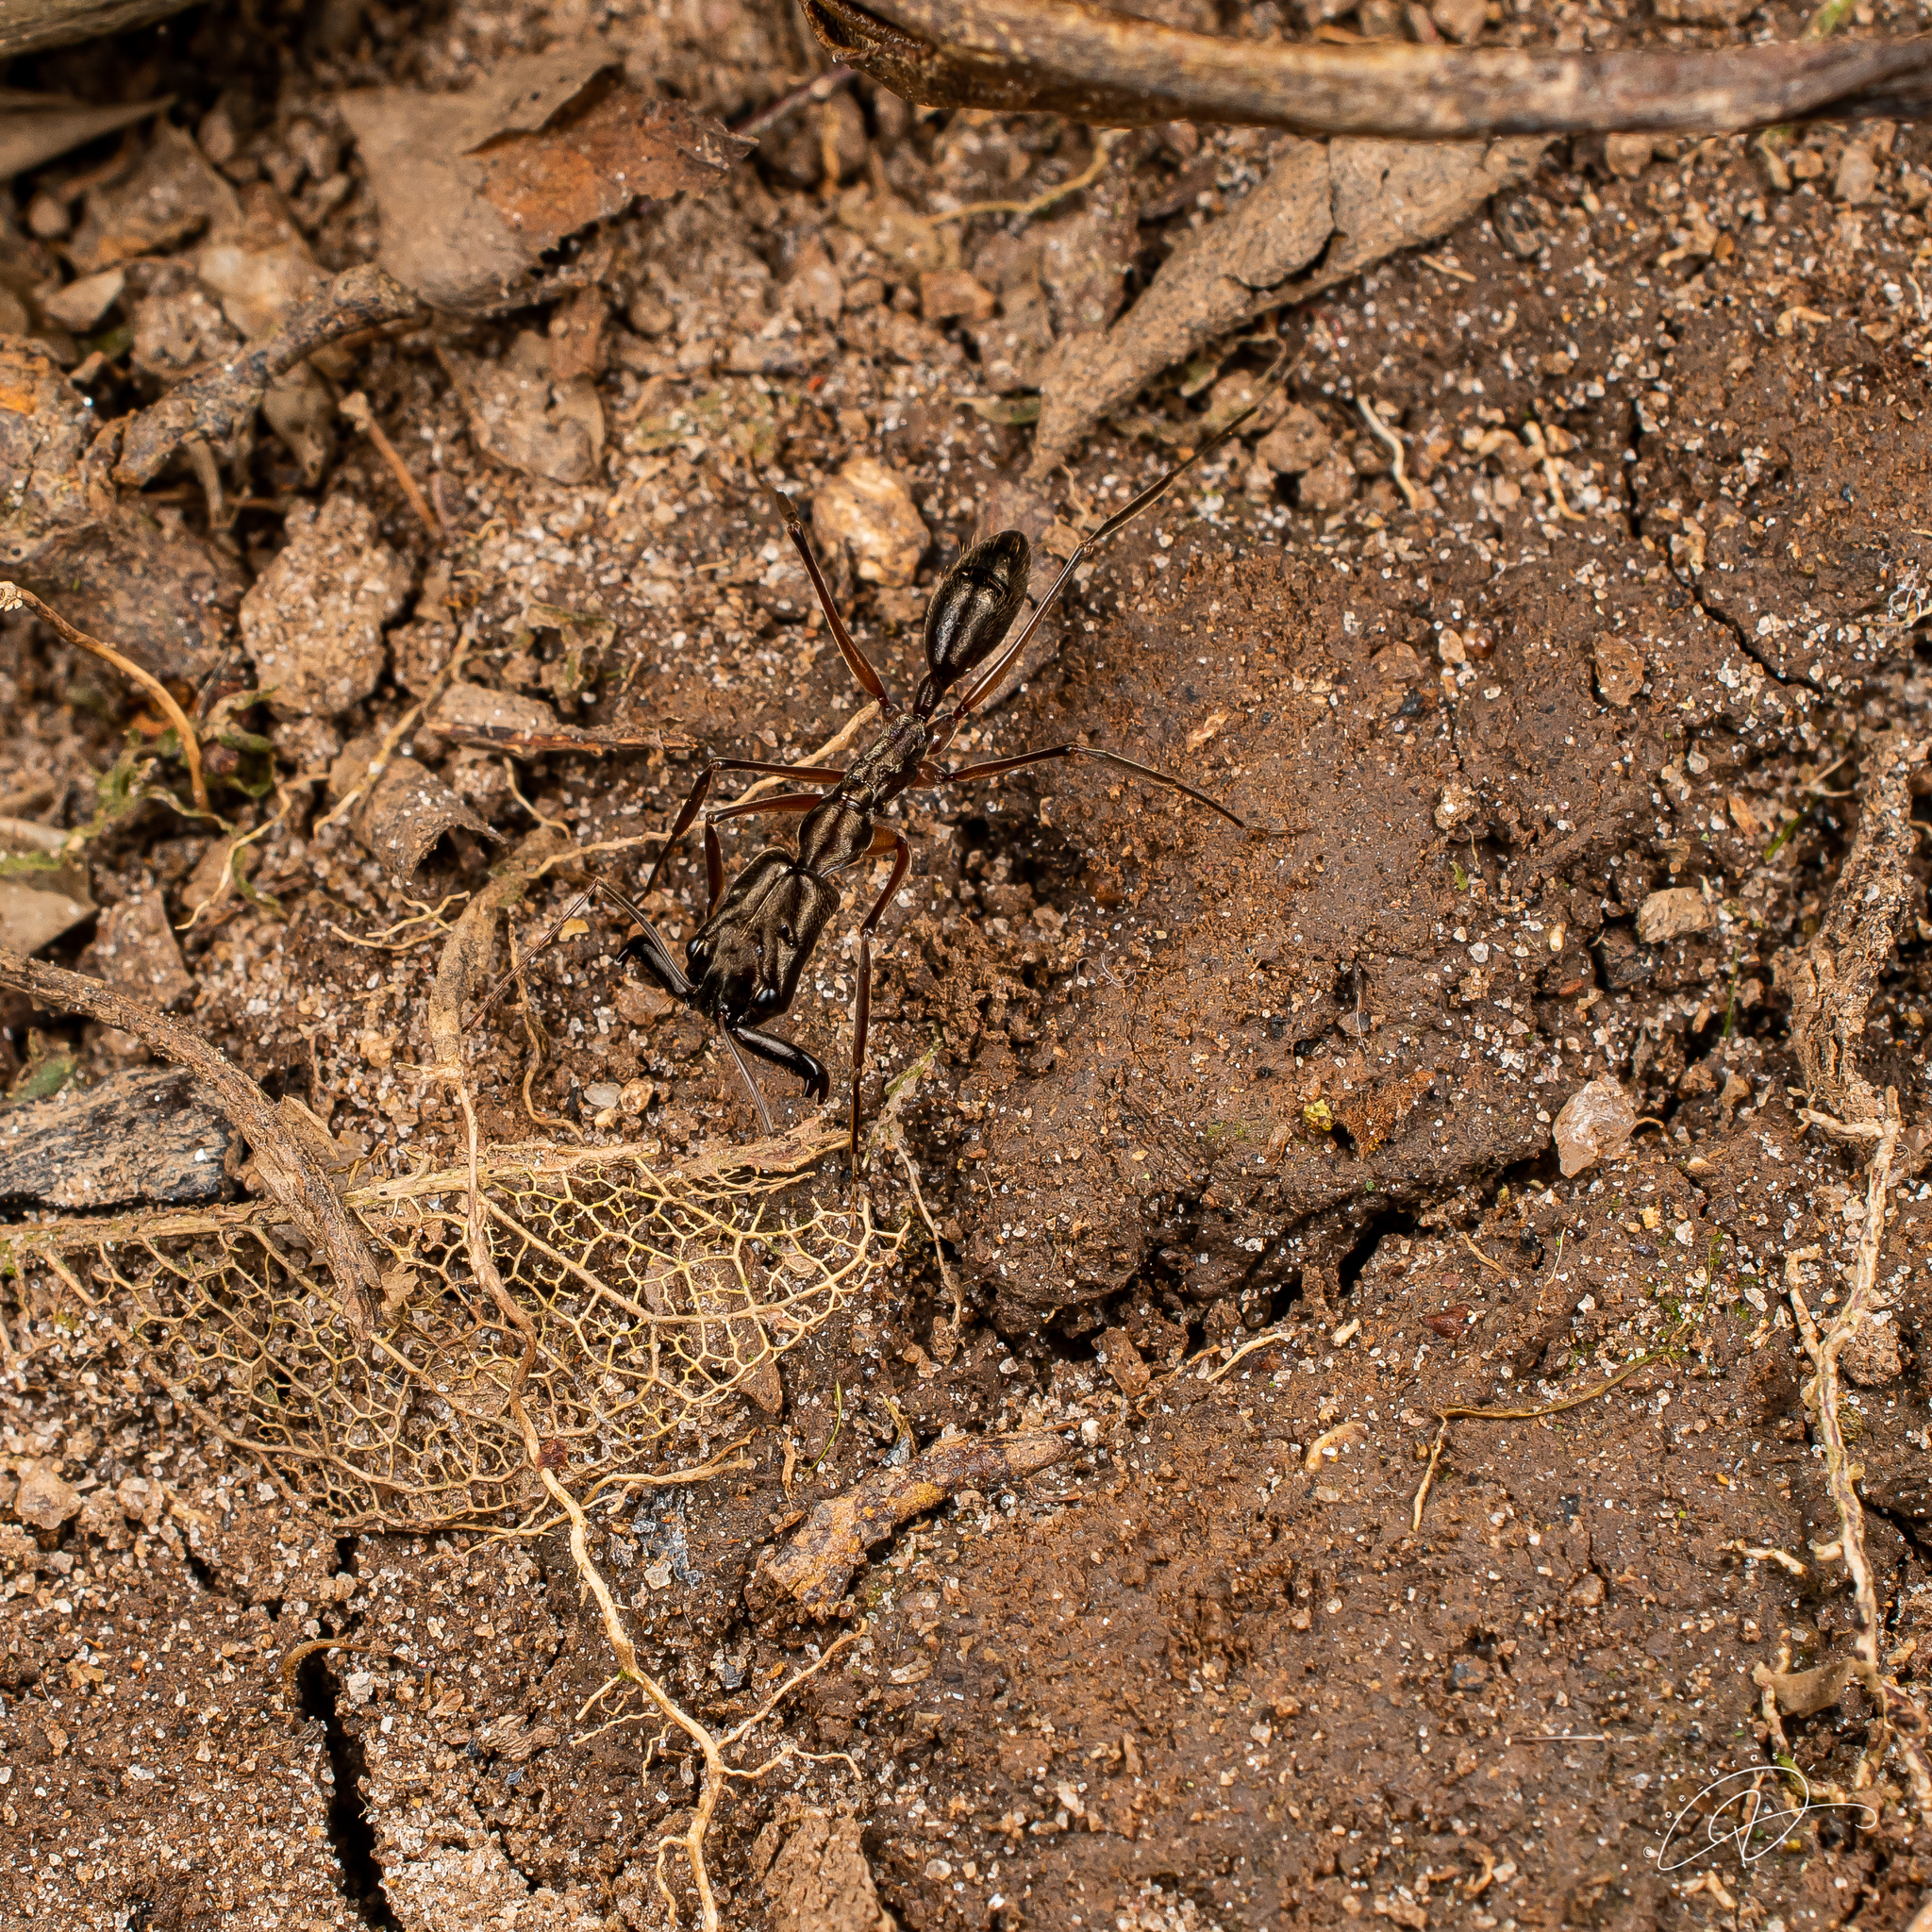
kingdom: Animalia
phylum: Arthropoda
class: Insecta
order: Hymenoptera
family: Formicidae
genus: Odontomachus
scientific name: Odontomachus chelifer
